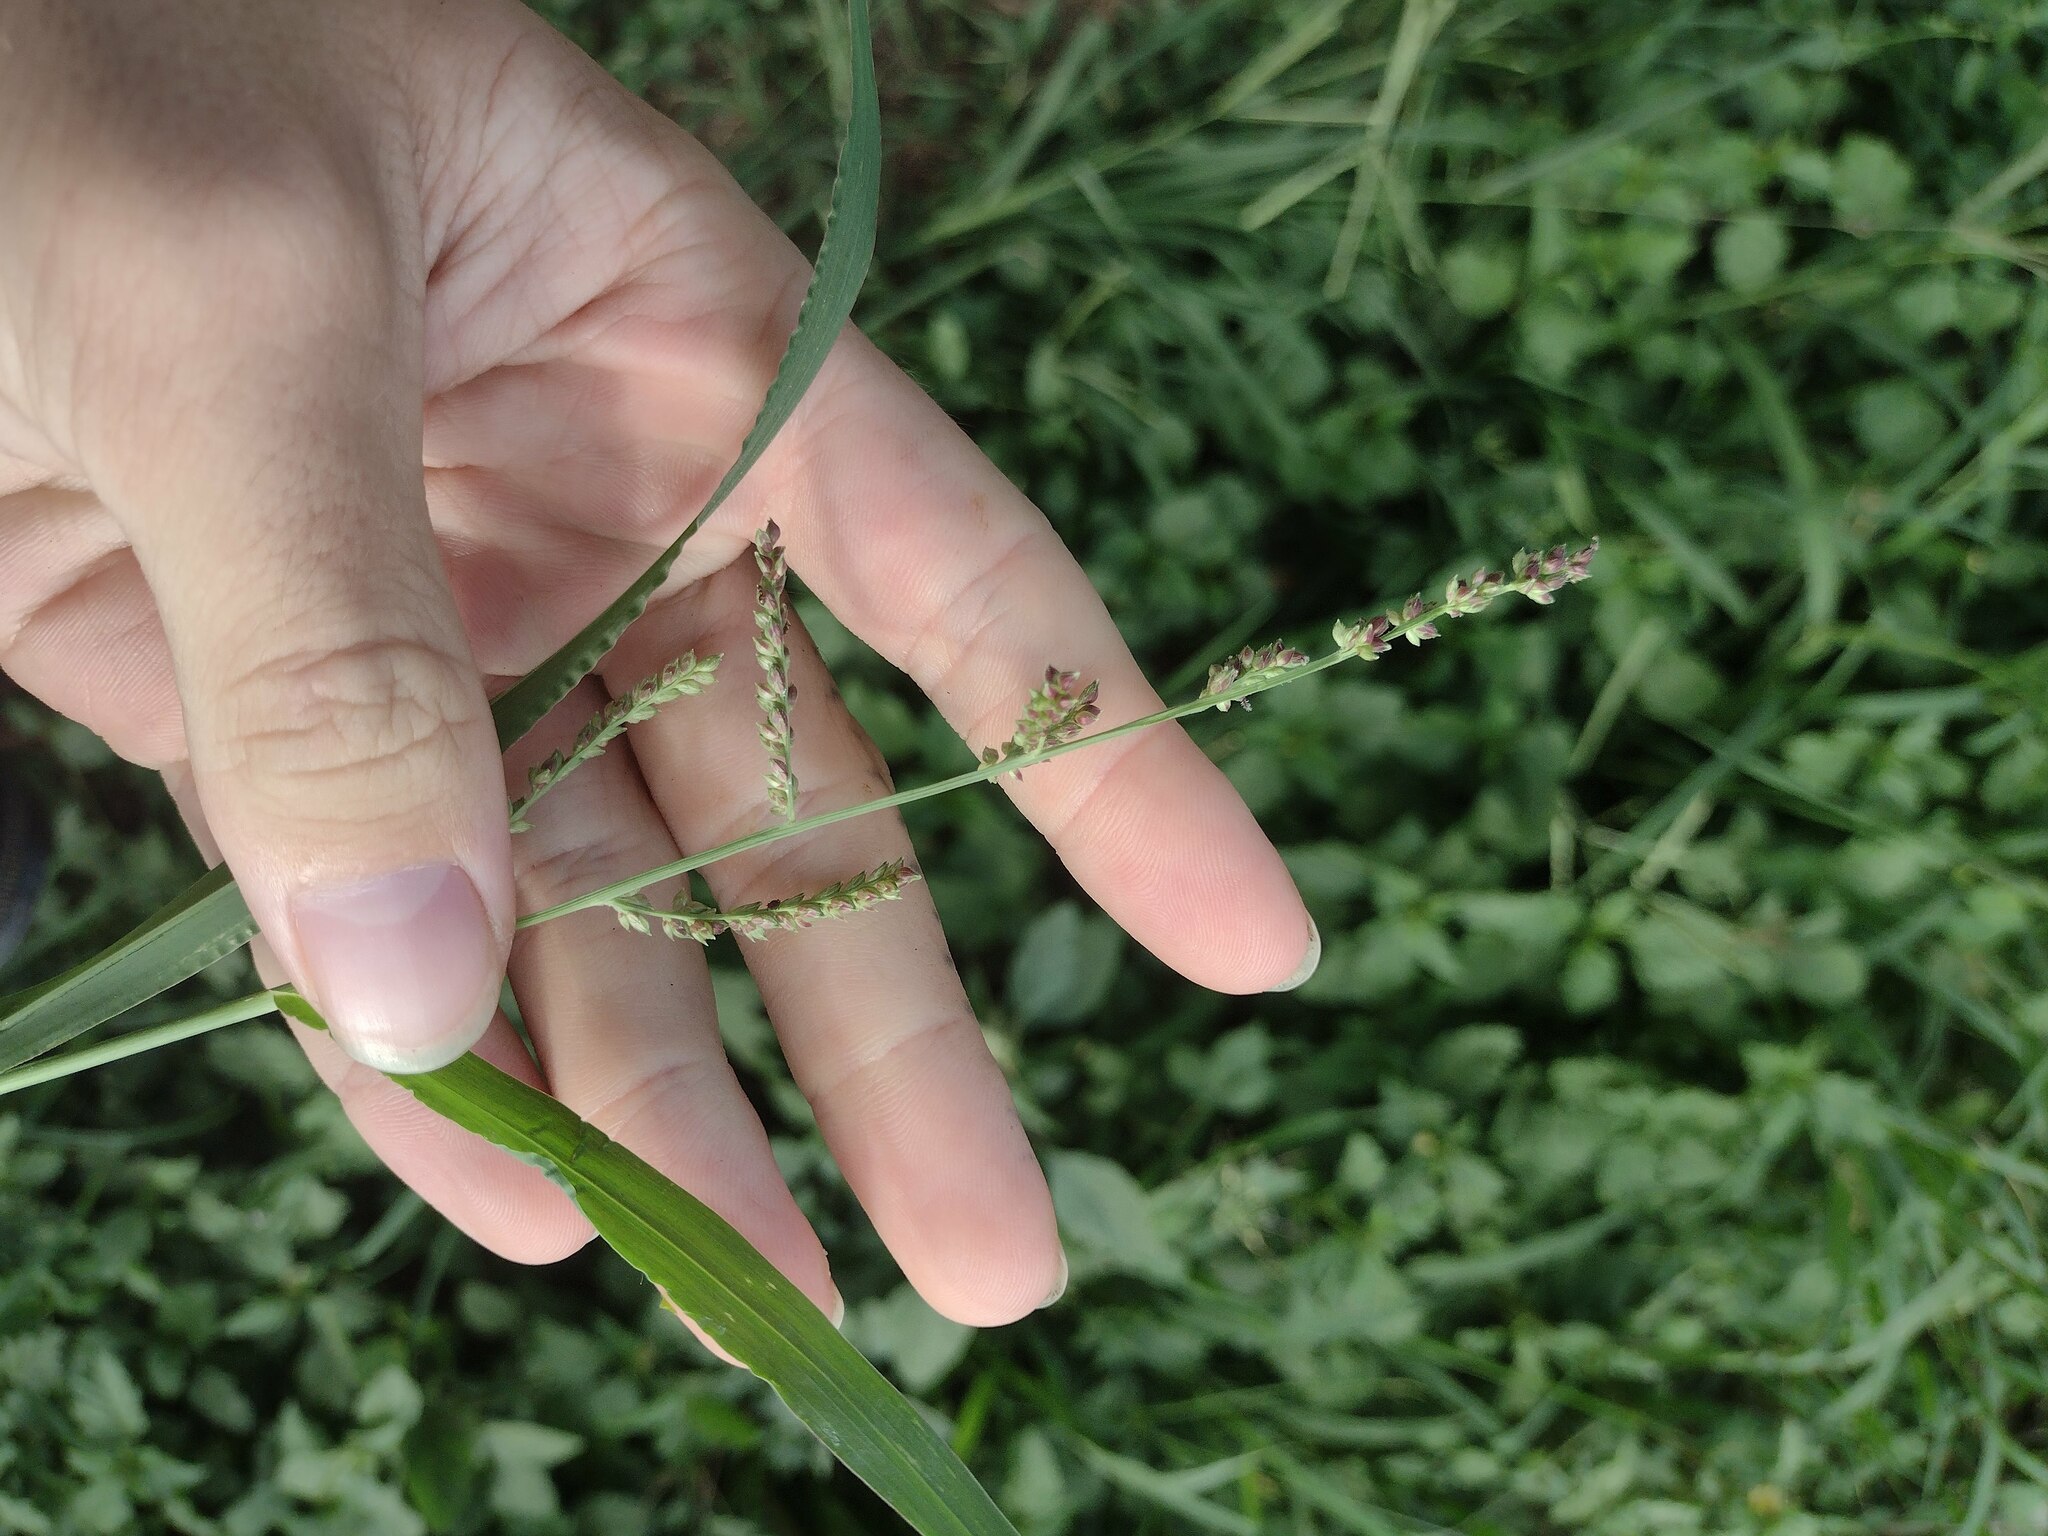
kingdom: Plantae
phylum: Tracheophyta
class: Liliopsida
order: Poales
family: Poaceae
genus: Echinochloa
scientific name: Echinochloa colonum
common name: Jungle rice
